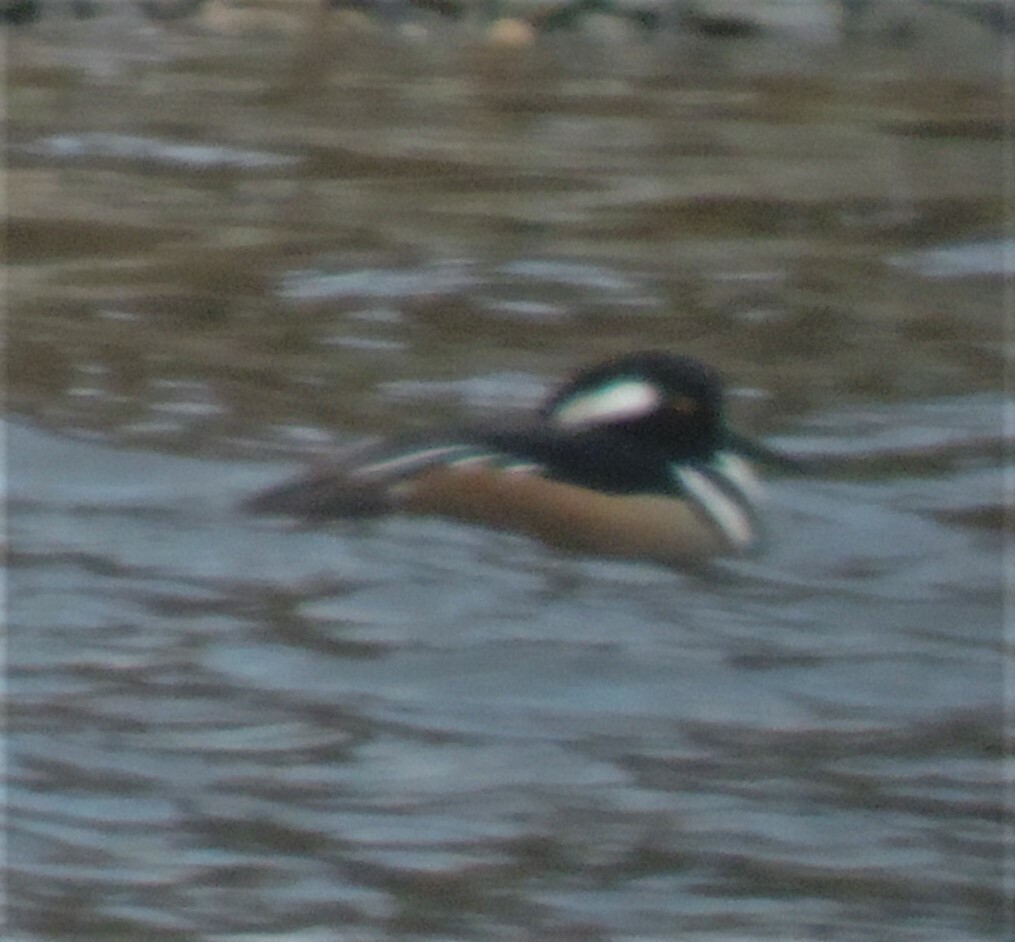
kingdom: Animalia
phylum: Chordata
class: Aves
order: Anseriformes
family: Anatidae
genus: Lophodytes
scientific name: Lophodytes cucullatus
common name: Hooded merganser
